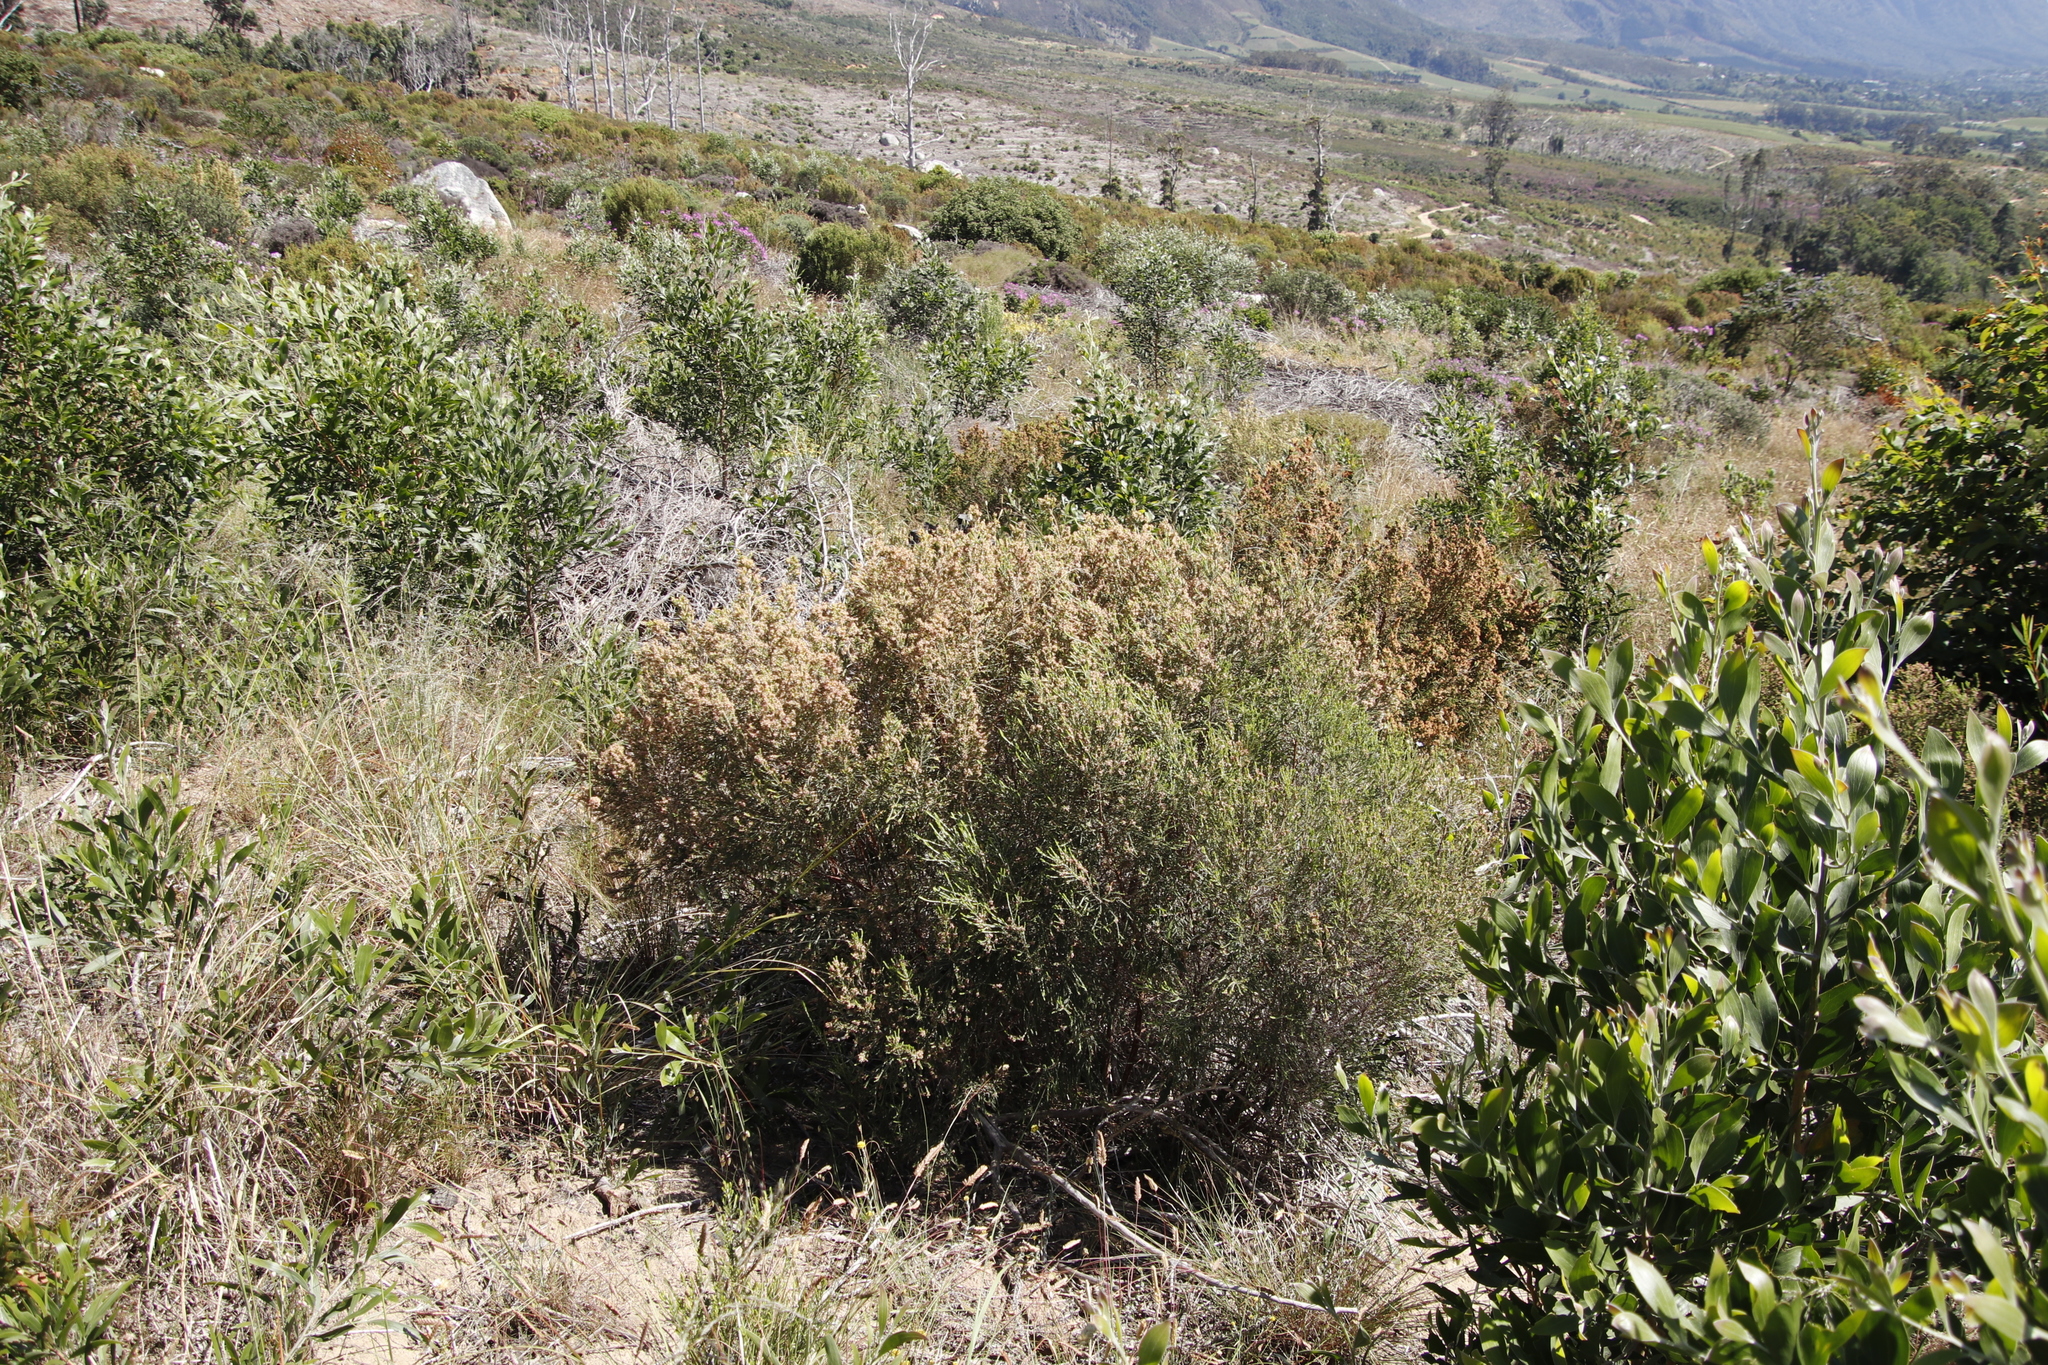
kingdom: Plantae
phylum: Tracheophyta
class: Magnoliopsida
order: Malvales
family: Thymelaeaceae
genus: Passerina
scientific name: Passerina corymbosa
